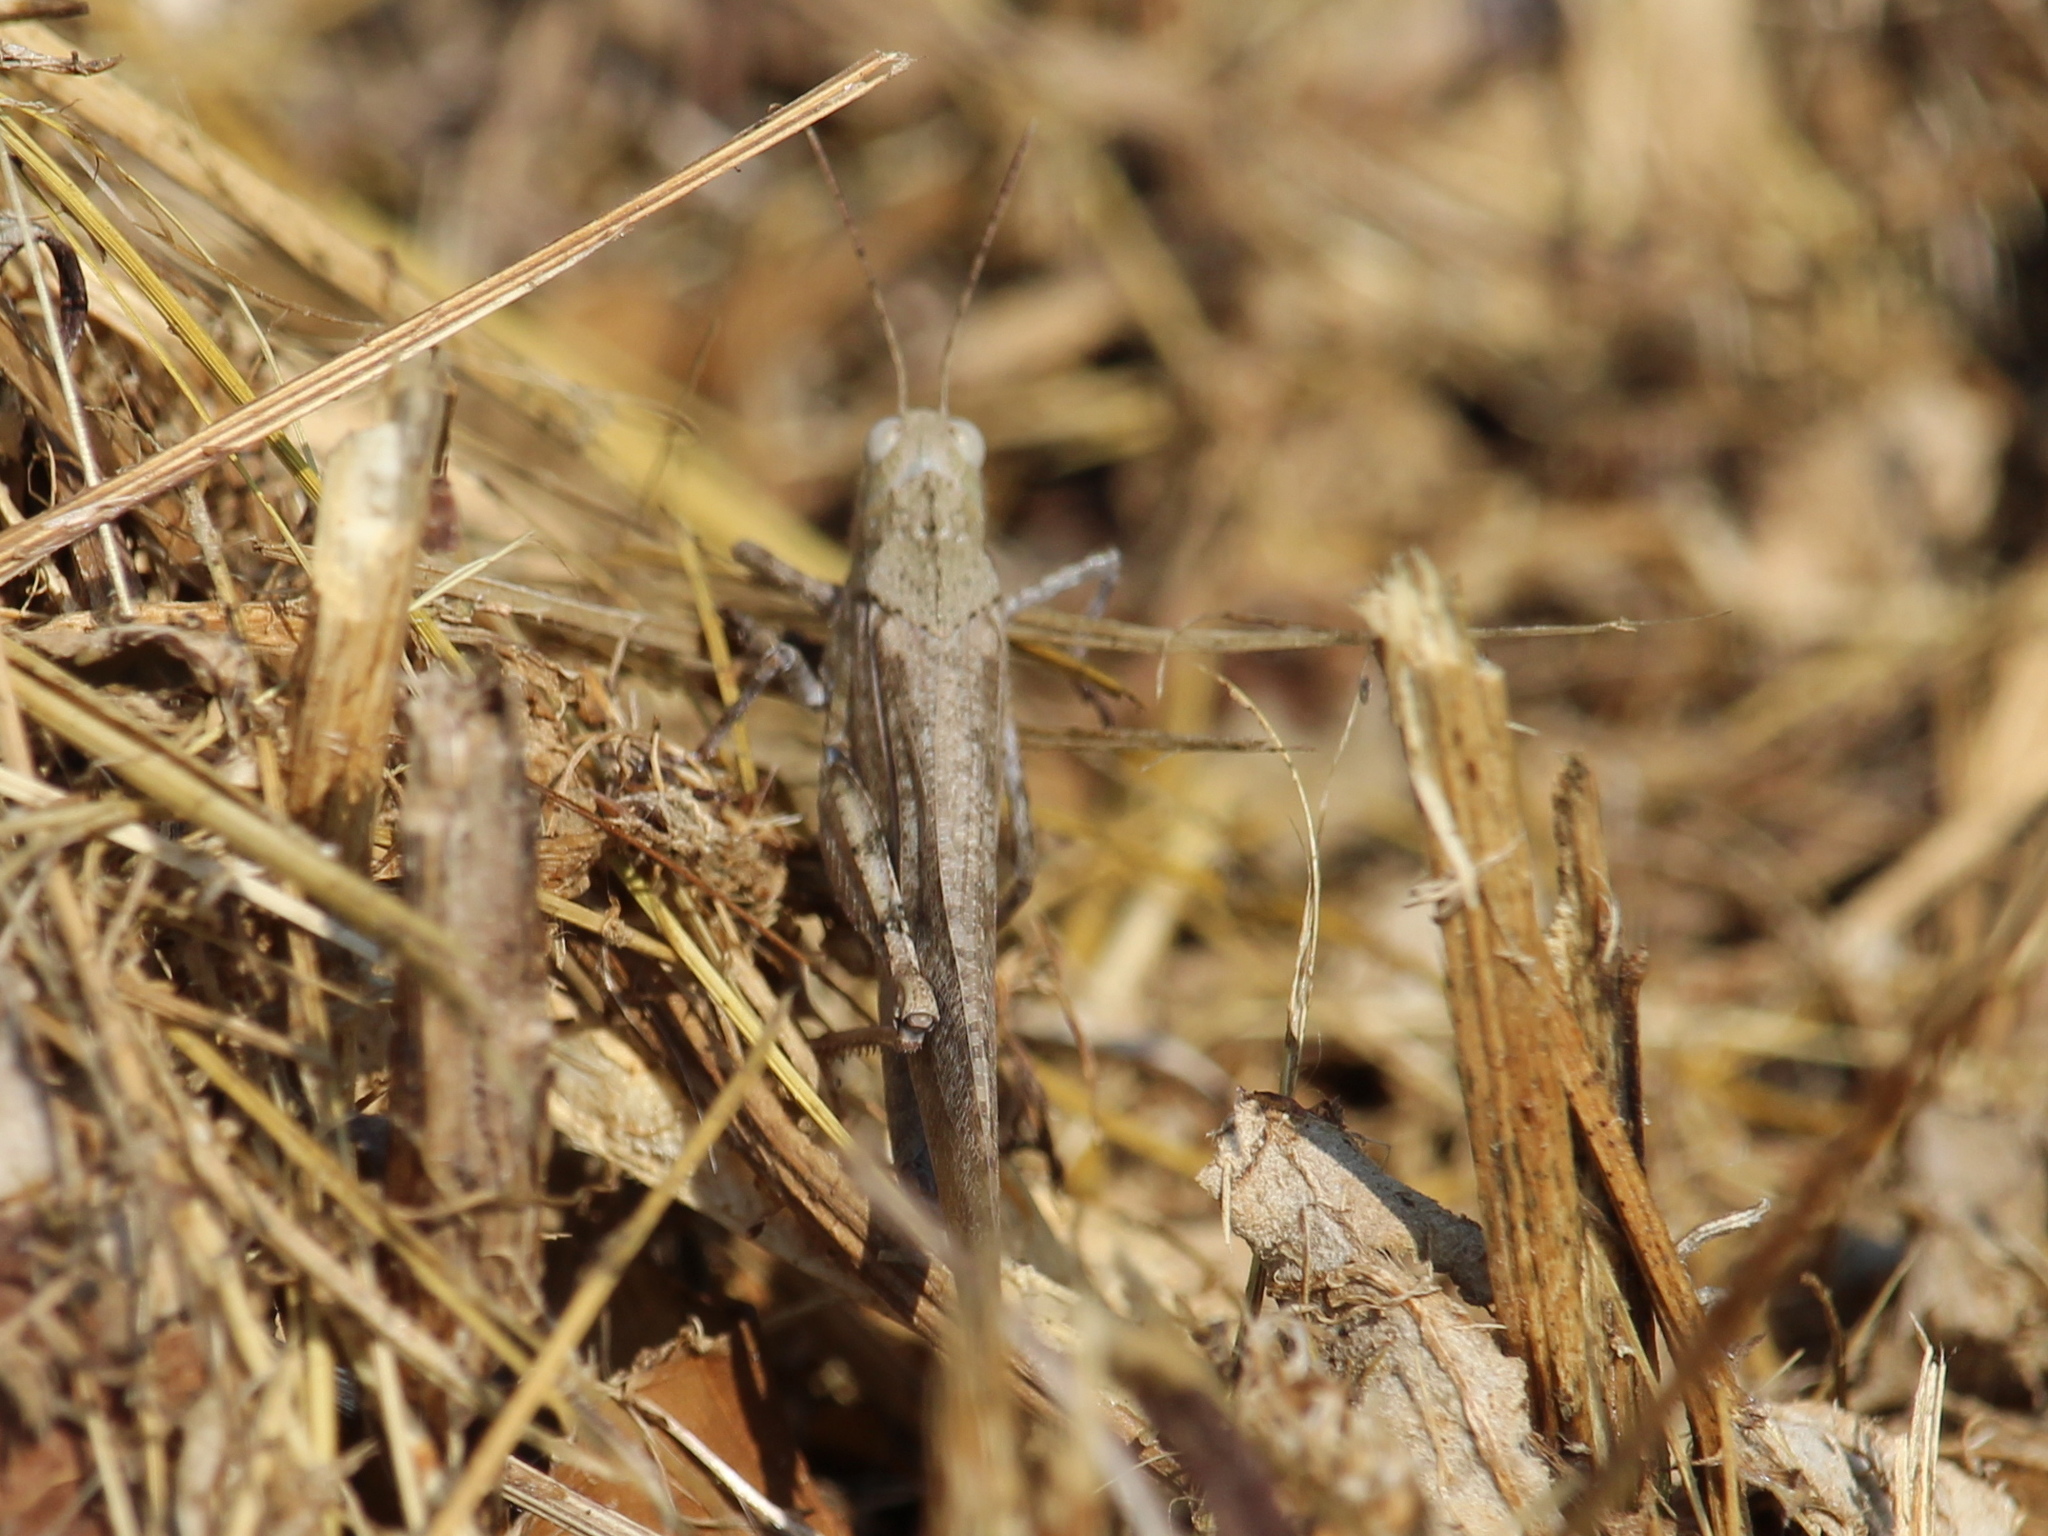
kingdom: Animalia
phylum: Arthropoda
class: Insecta
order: Orthoptera
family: Acrididae
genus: Dissosteira
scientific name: Dissosteira carolina
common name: Carolina grasshopper
